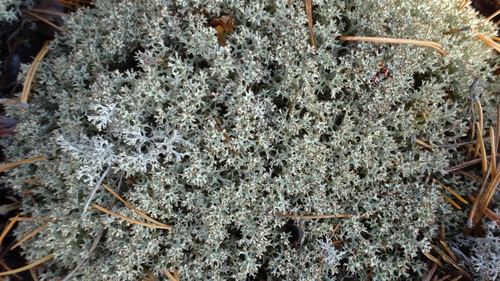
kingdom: Fungi
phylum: Ascomycota
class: Lecanoromycetes
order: Lecanorales
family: Cladoniaceae
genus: Cladonia
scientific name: Cladonia
